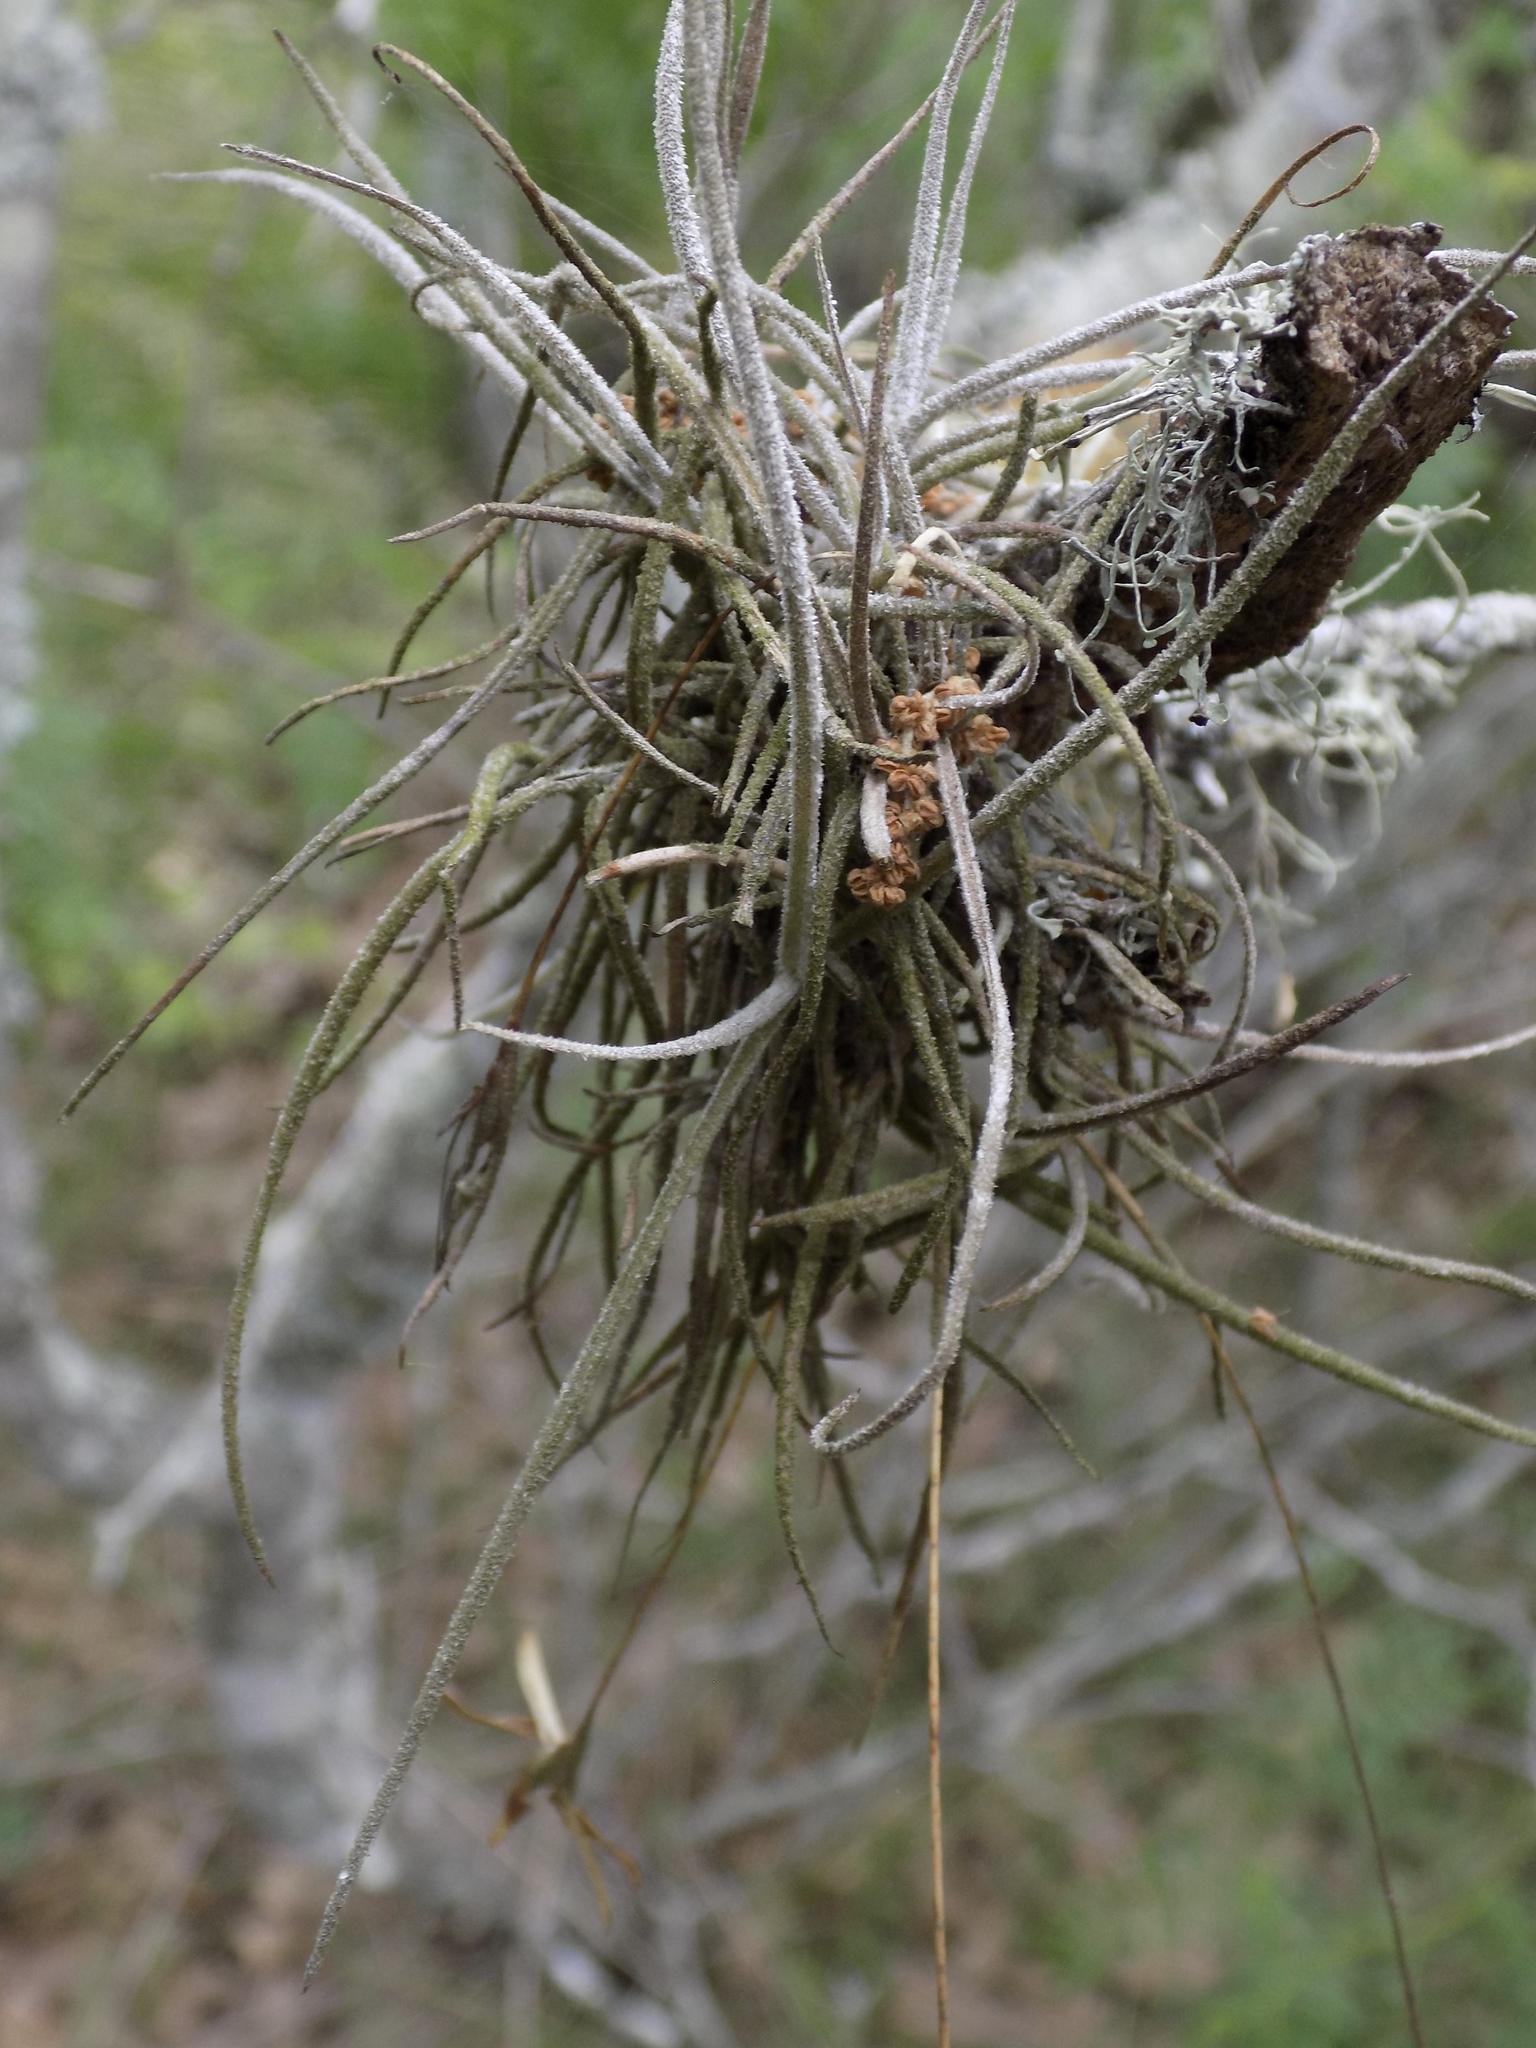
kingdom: Plantae
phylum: Tracheophyta
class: Liliopsida
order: Poales
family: Bromeliaceae
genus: Tillandsia
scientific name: Tillandsia recurvata
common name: Small ballmoss
